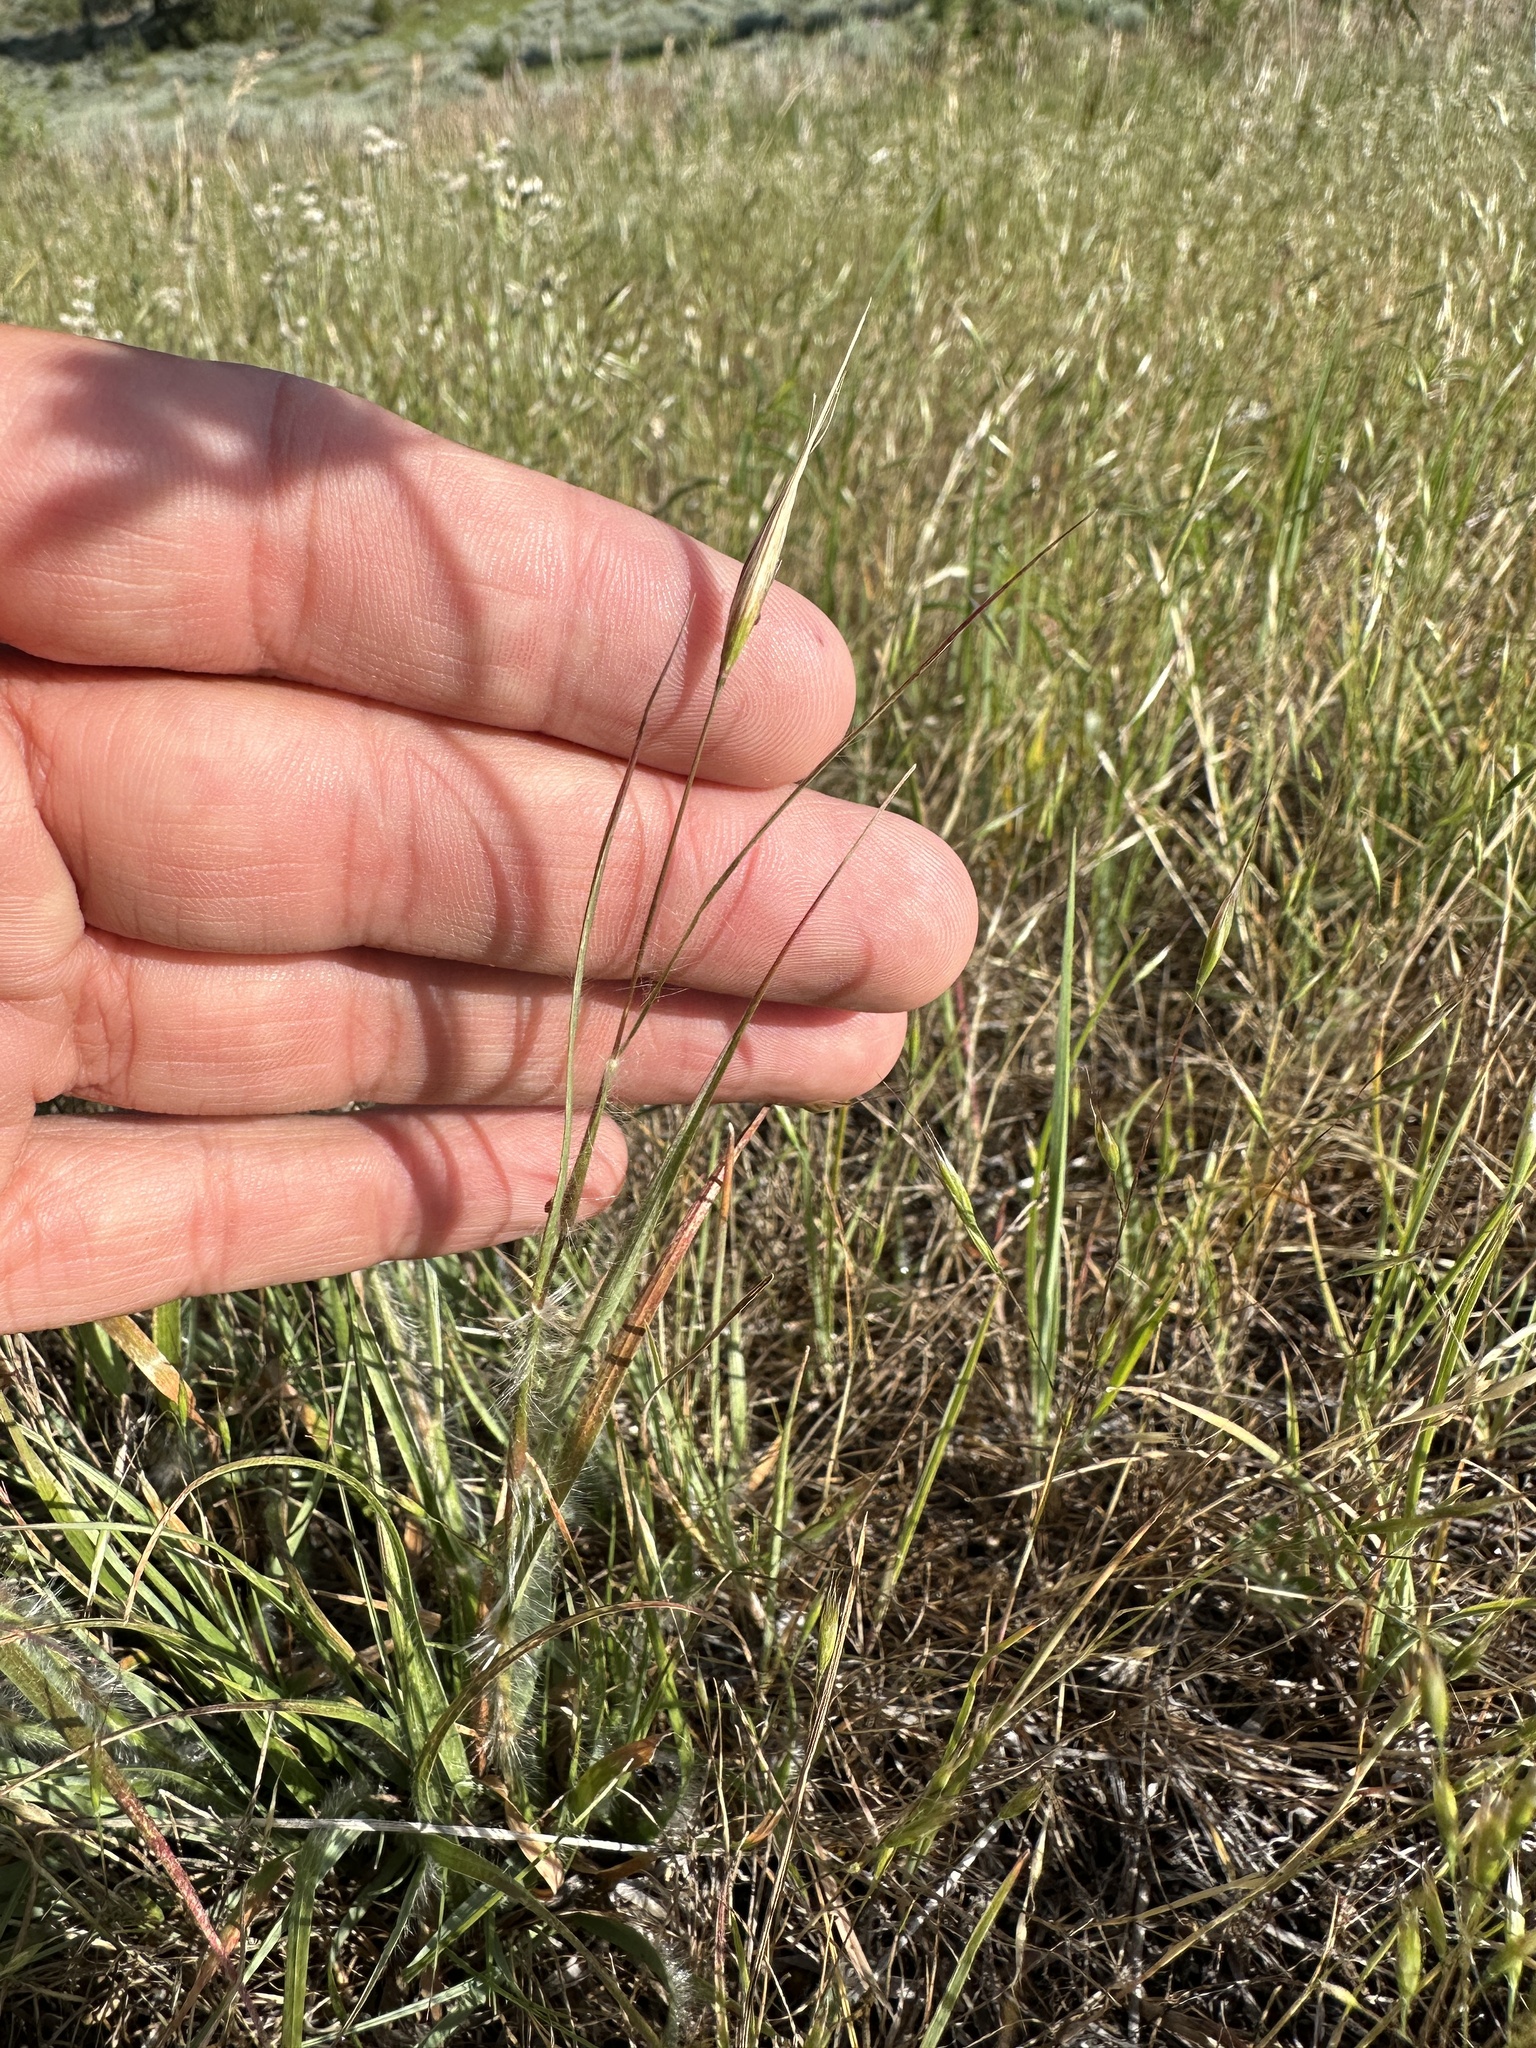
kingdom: Plantae
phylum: Tracheophyta
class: Liliopsida
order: Poales
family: Poaceae
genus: Danthonia
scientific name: Danthonia unispicata
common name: Few-flowered oatgrass
